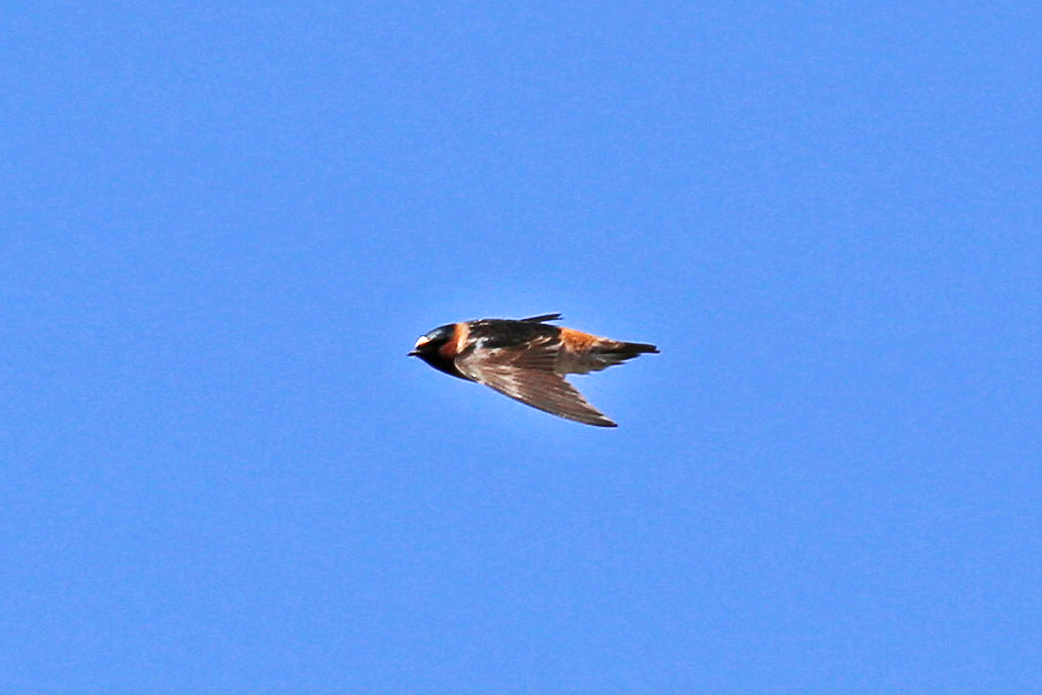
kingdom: Animalia
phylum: Chordata
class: Aves
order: Passeriformes
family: Hirundinidae
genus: Petrochelidon
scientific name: Petrochelidon pyrrhonota
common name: American cliff swallow
